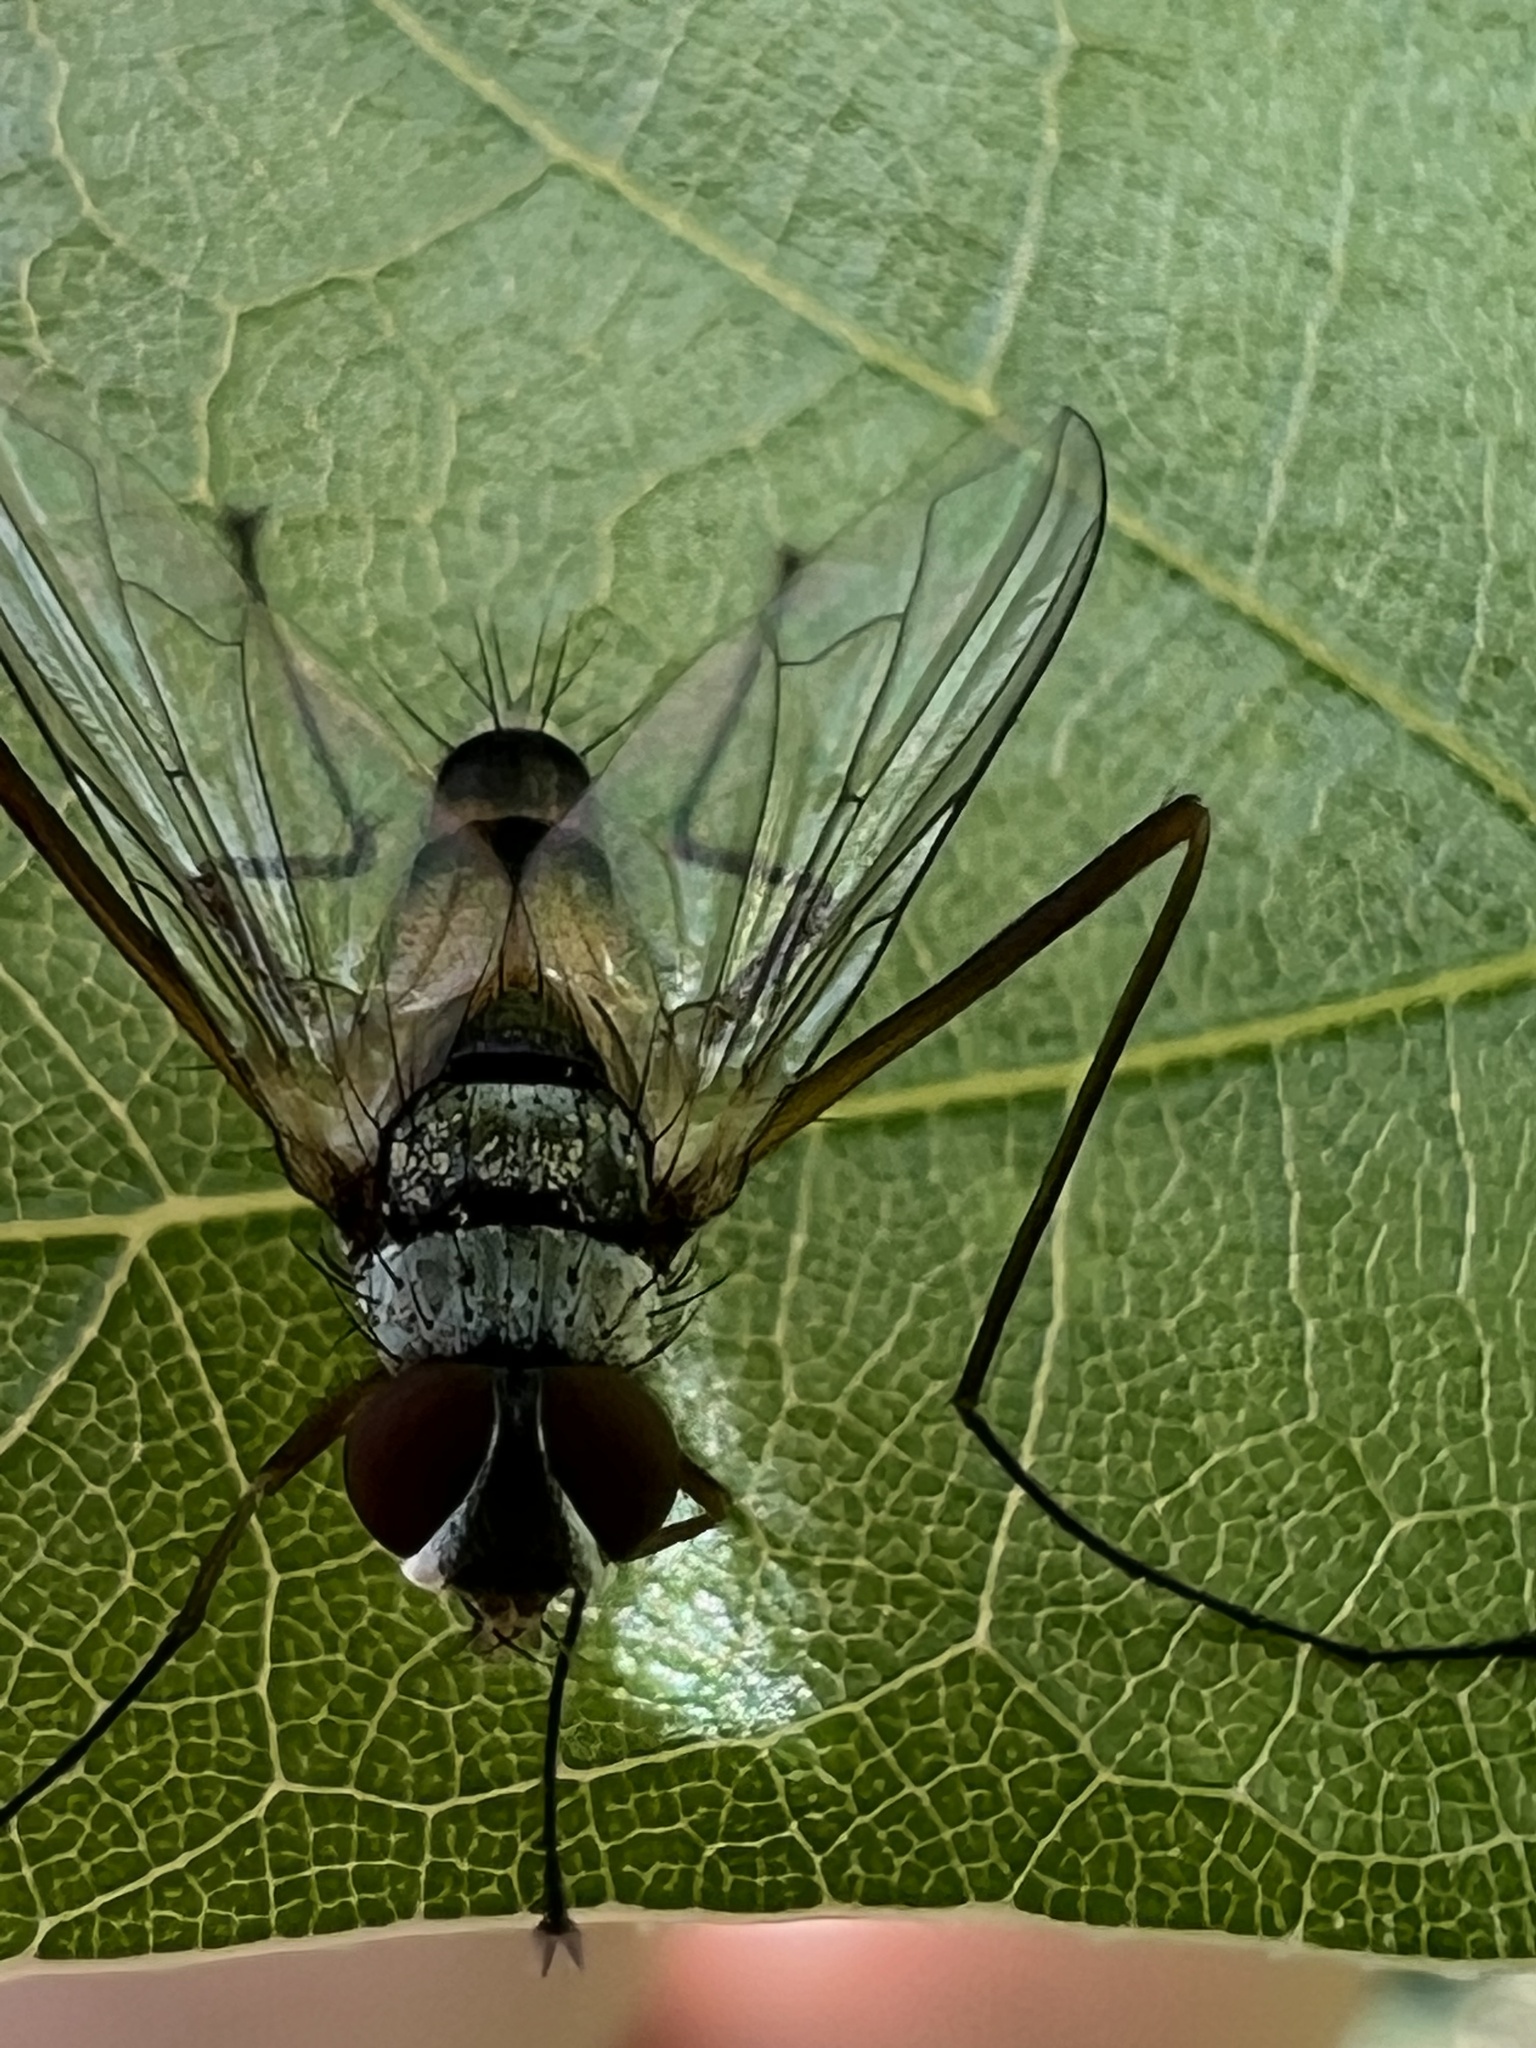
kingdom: Animalia
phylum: Arthropoda
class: Insecta
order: Diptera
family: Tachinidae
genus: Cholomyia
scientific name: Cholomyia inaequipes
